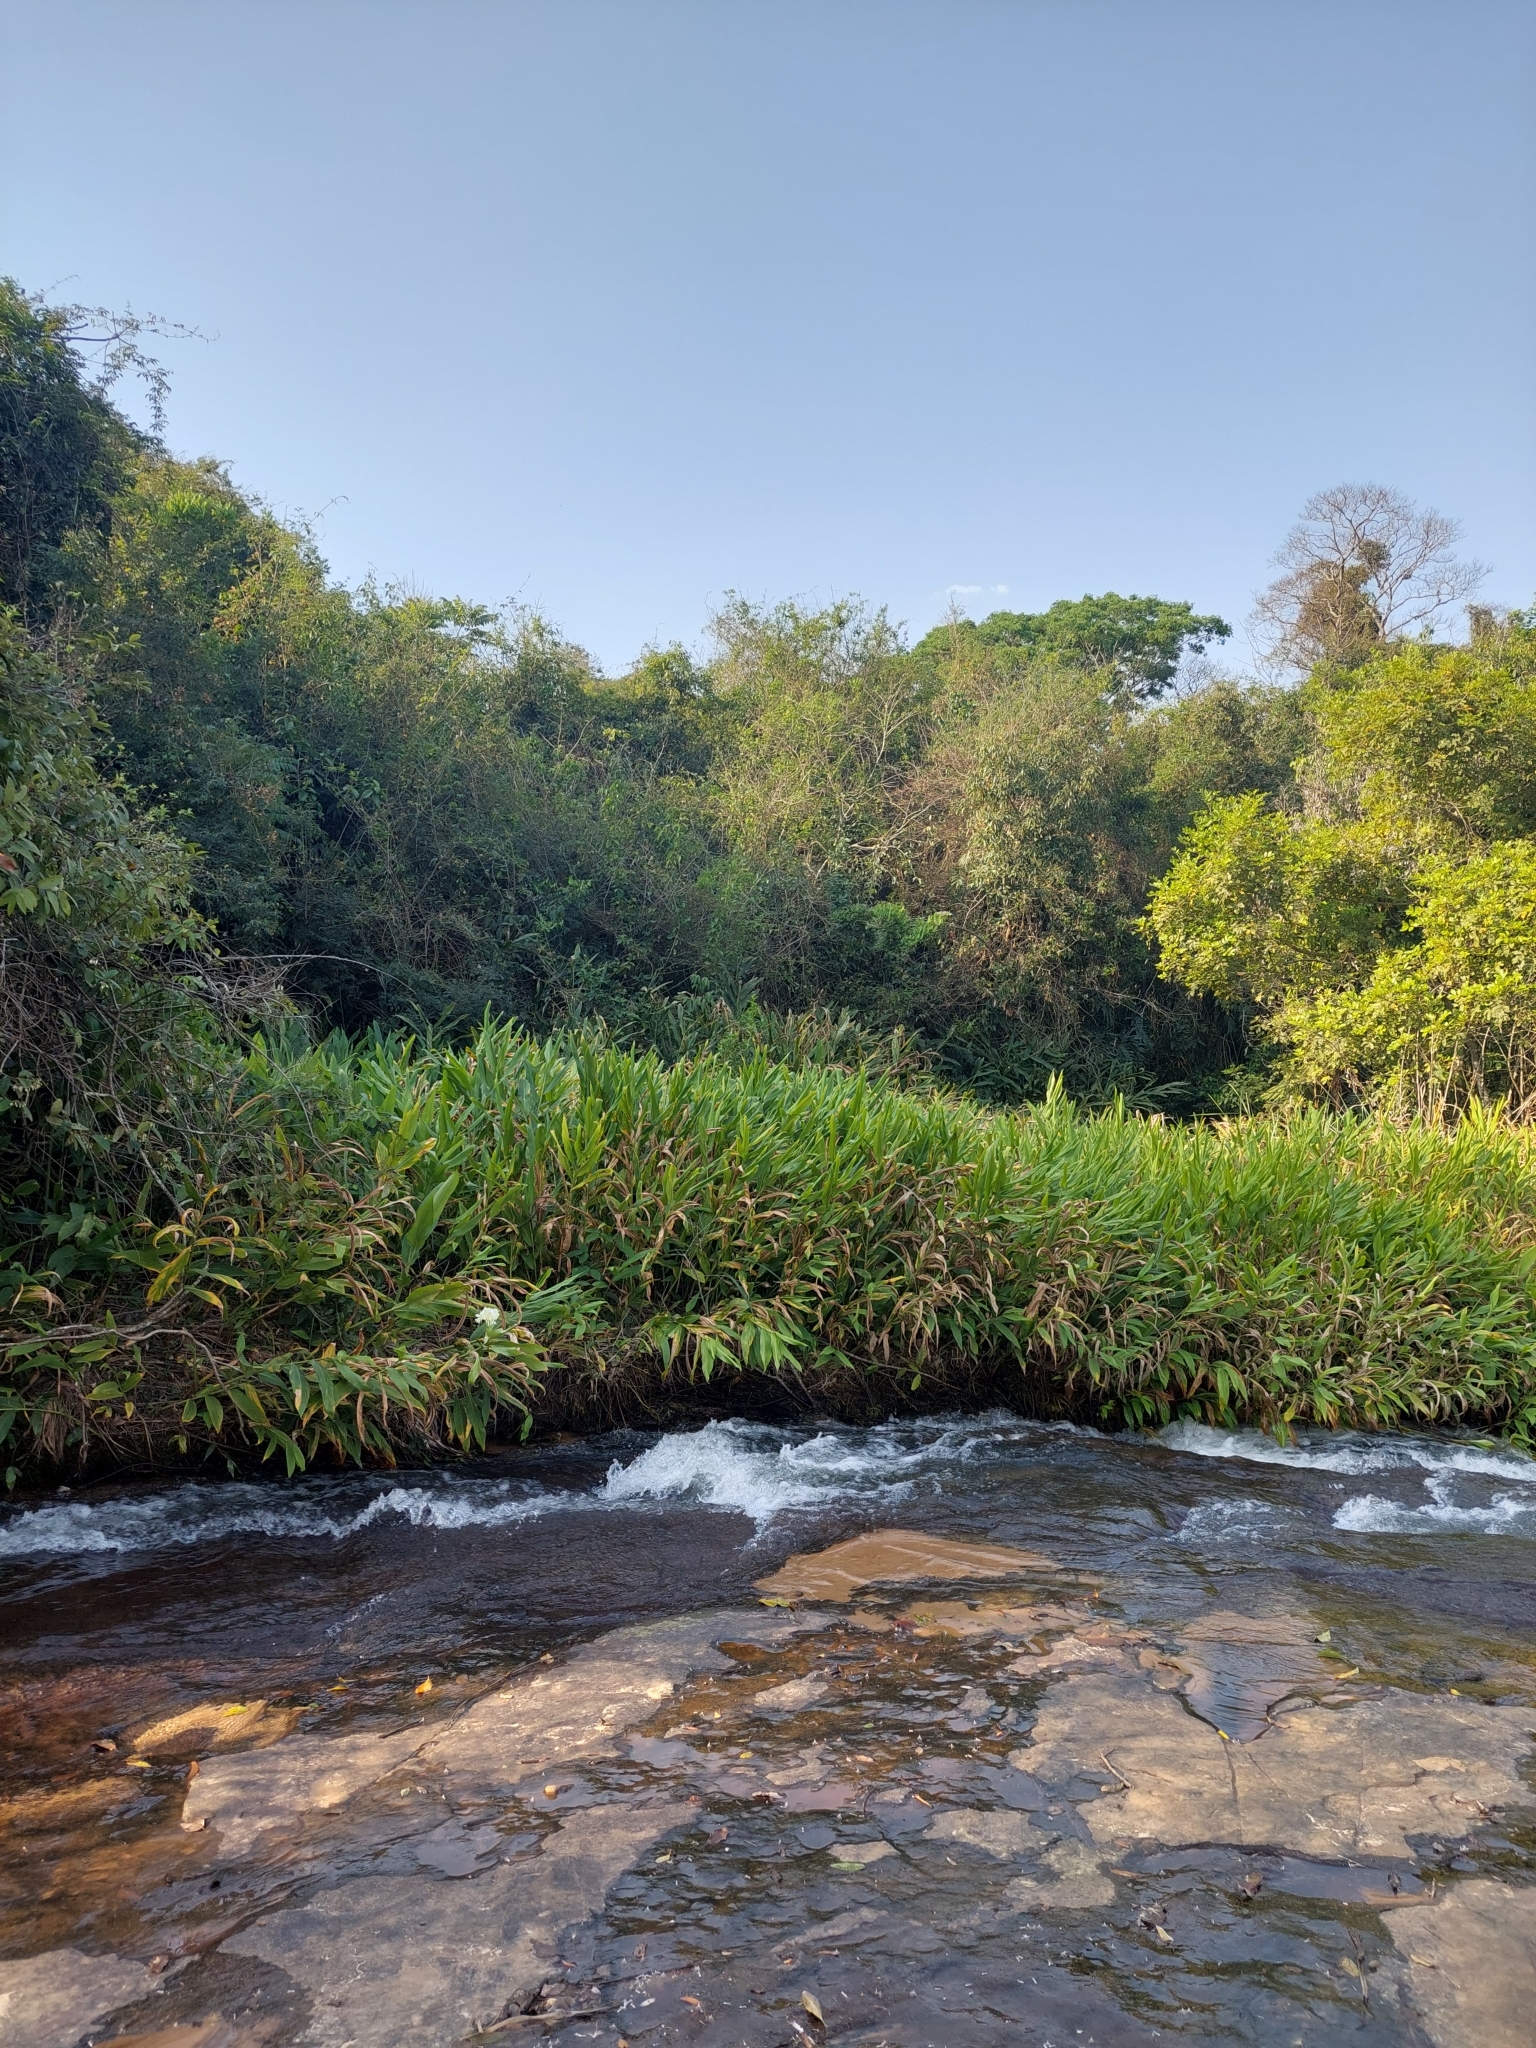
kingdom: Plantae
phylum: Tracheophyta
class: Liliopsida
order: Zingiberales
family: Zingiberaceae
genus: Hedychium
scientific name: Hedychium coronarium
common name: White garland-lily
